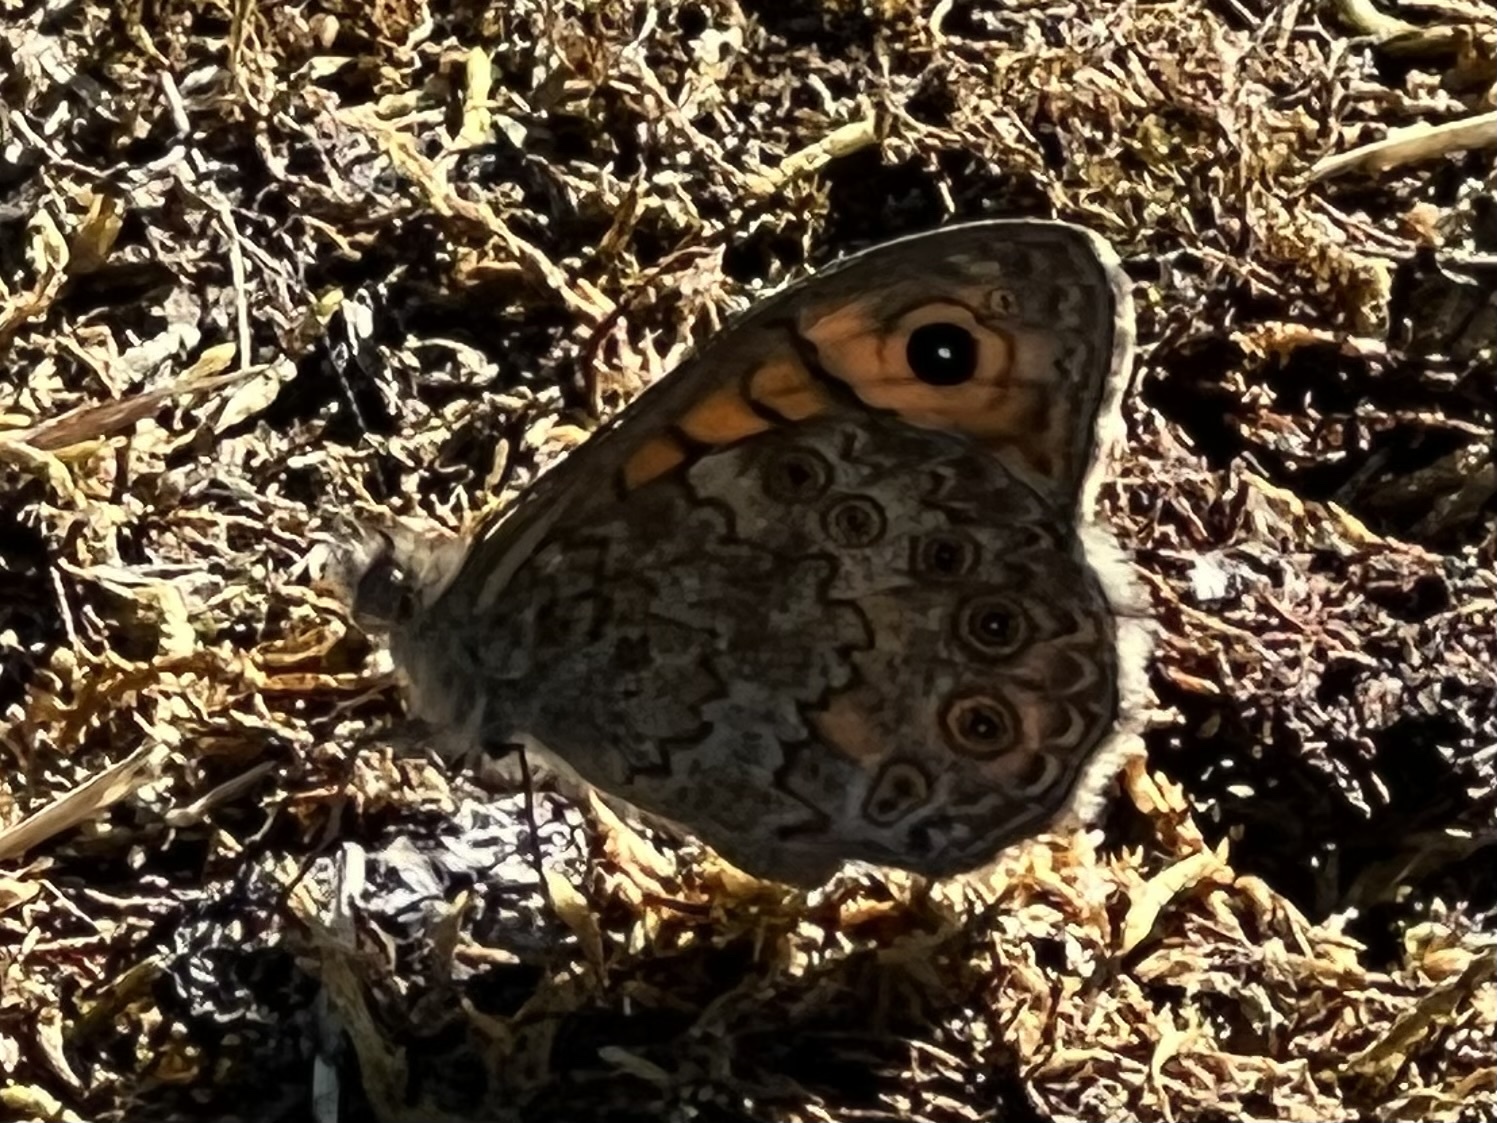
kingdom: Animalia
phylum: Arthropoda
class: Insecta
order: Lepidoptera
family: Nymphalidae
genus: Pararge
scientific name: Pararge Lasiommata megera
